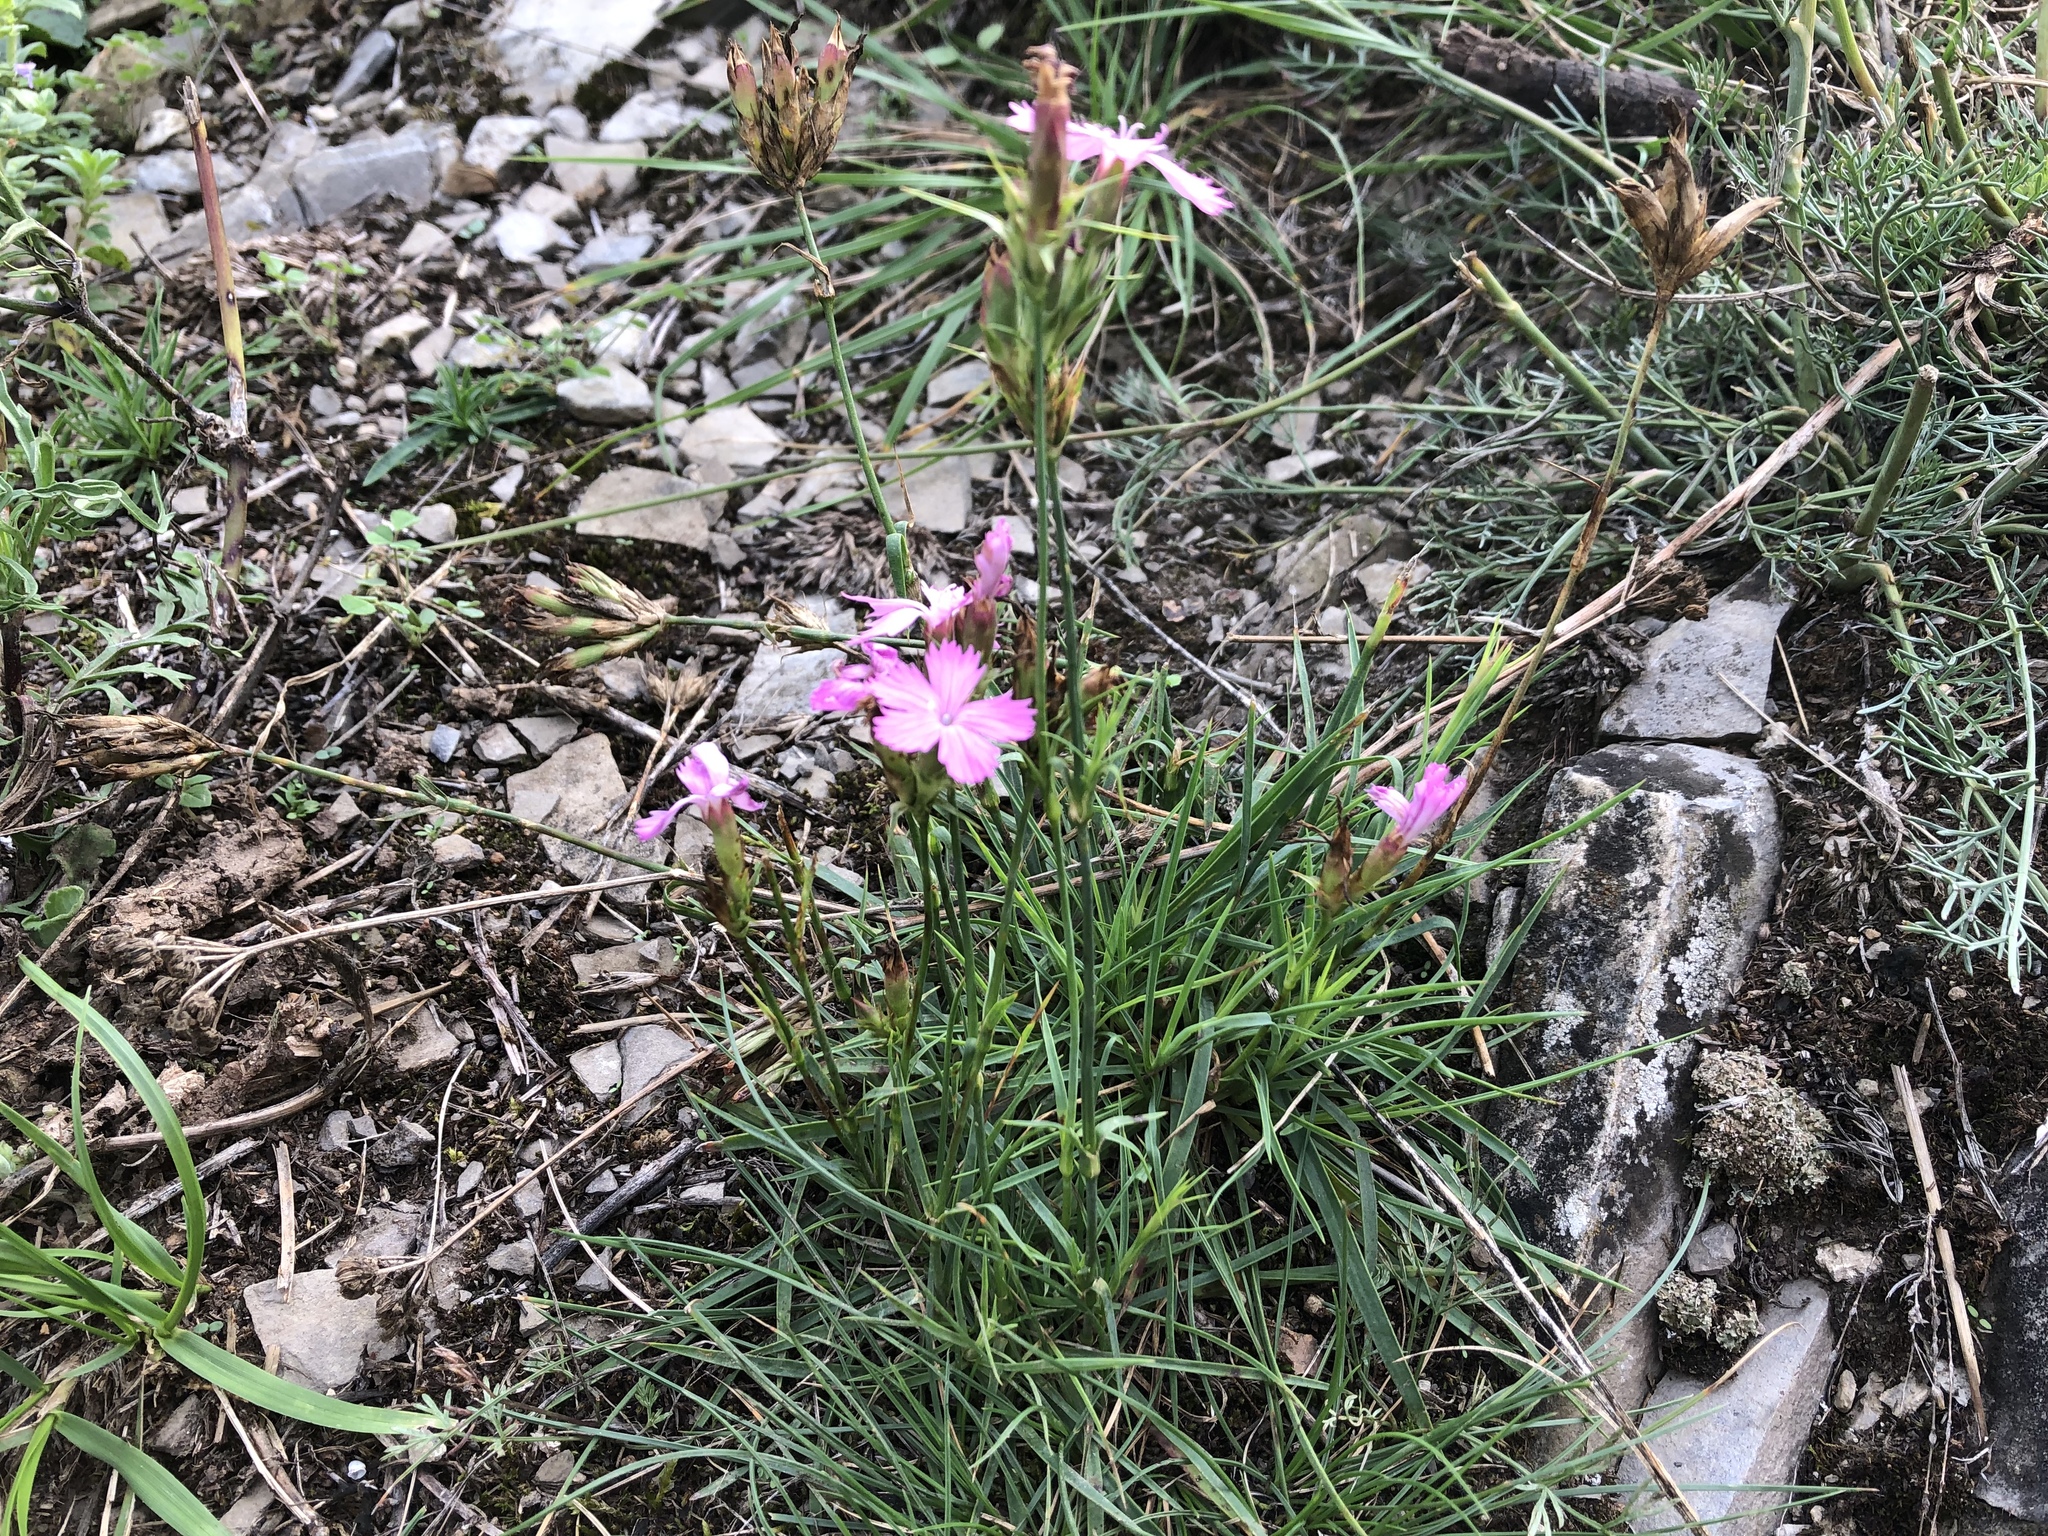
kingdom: Plantae
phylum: Tracheophyta
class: Magnoliopsida
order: Caryophyllales
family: Caryophyllaceae
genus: Dianthus
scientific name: Dianthus carthusianorum
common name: Carthusian pink
